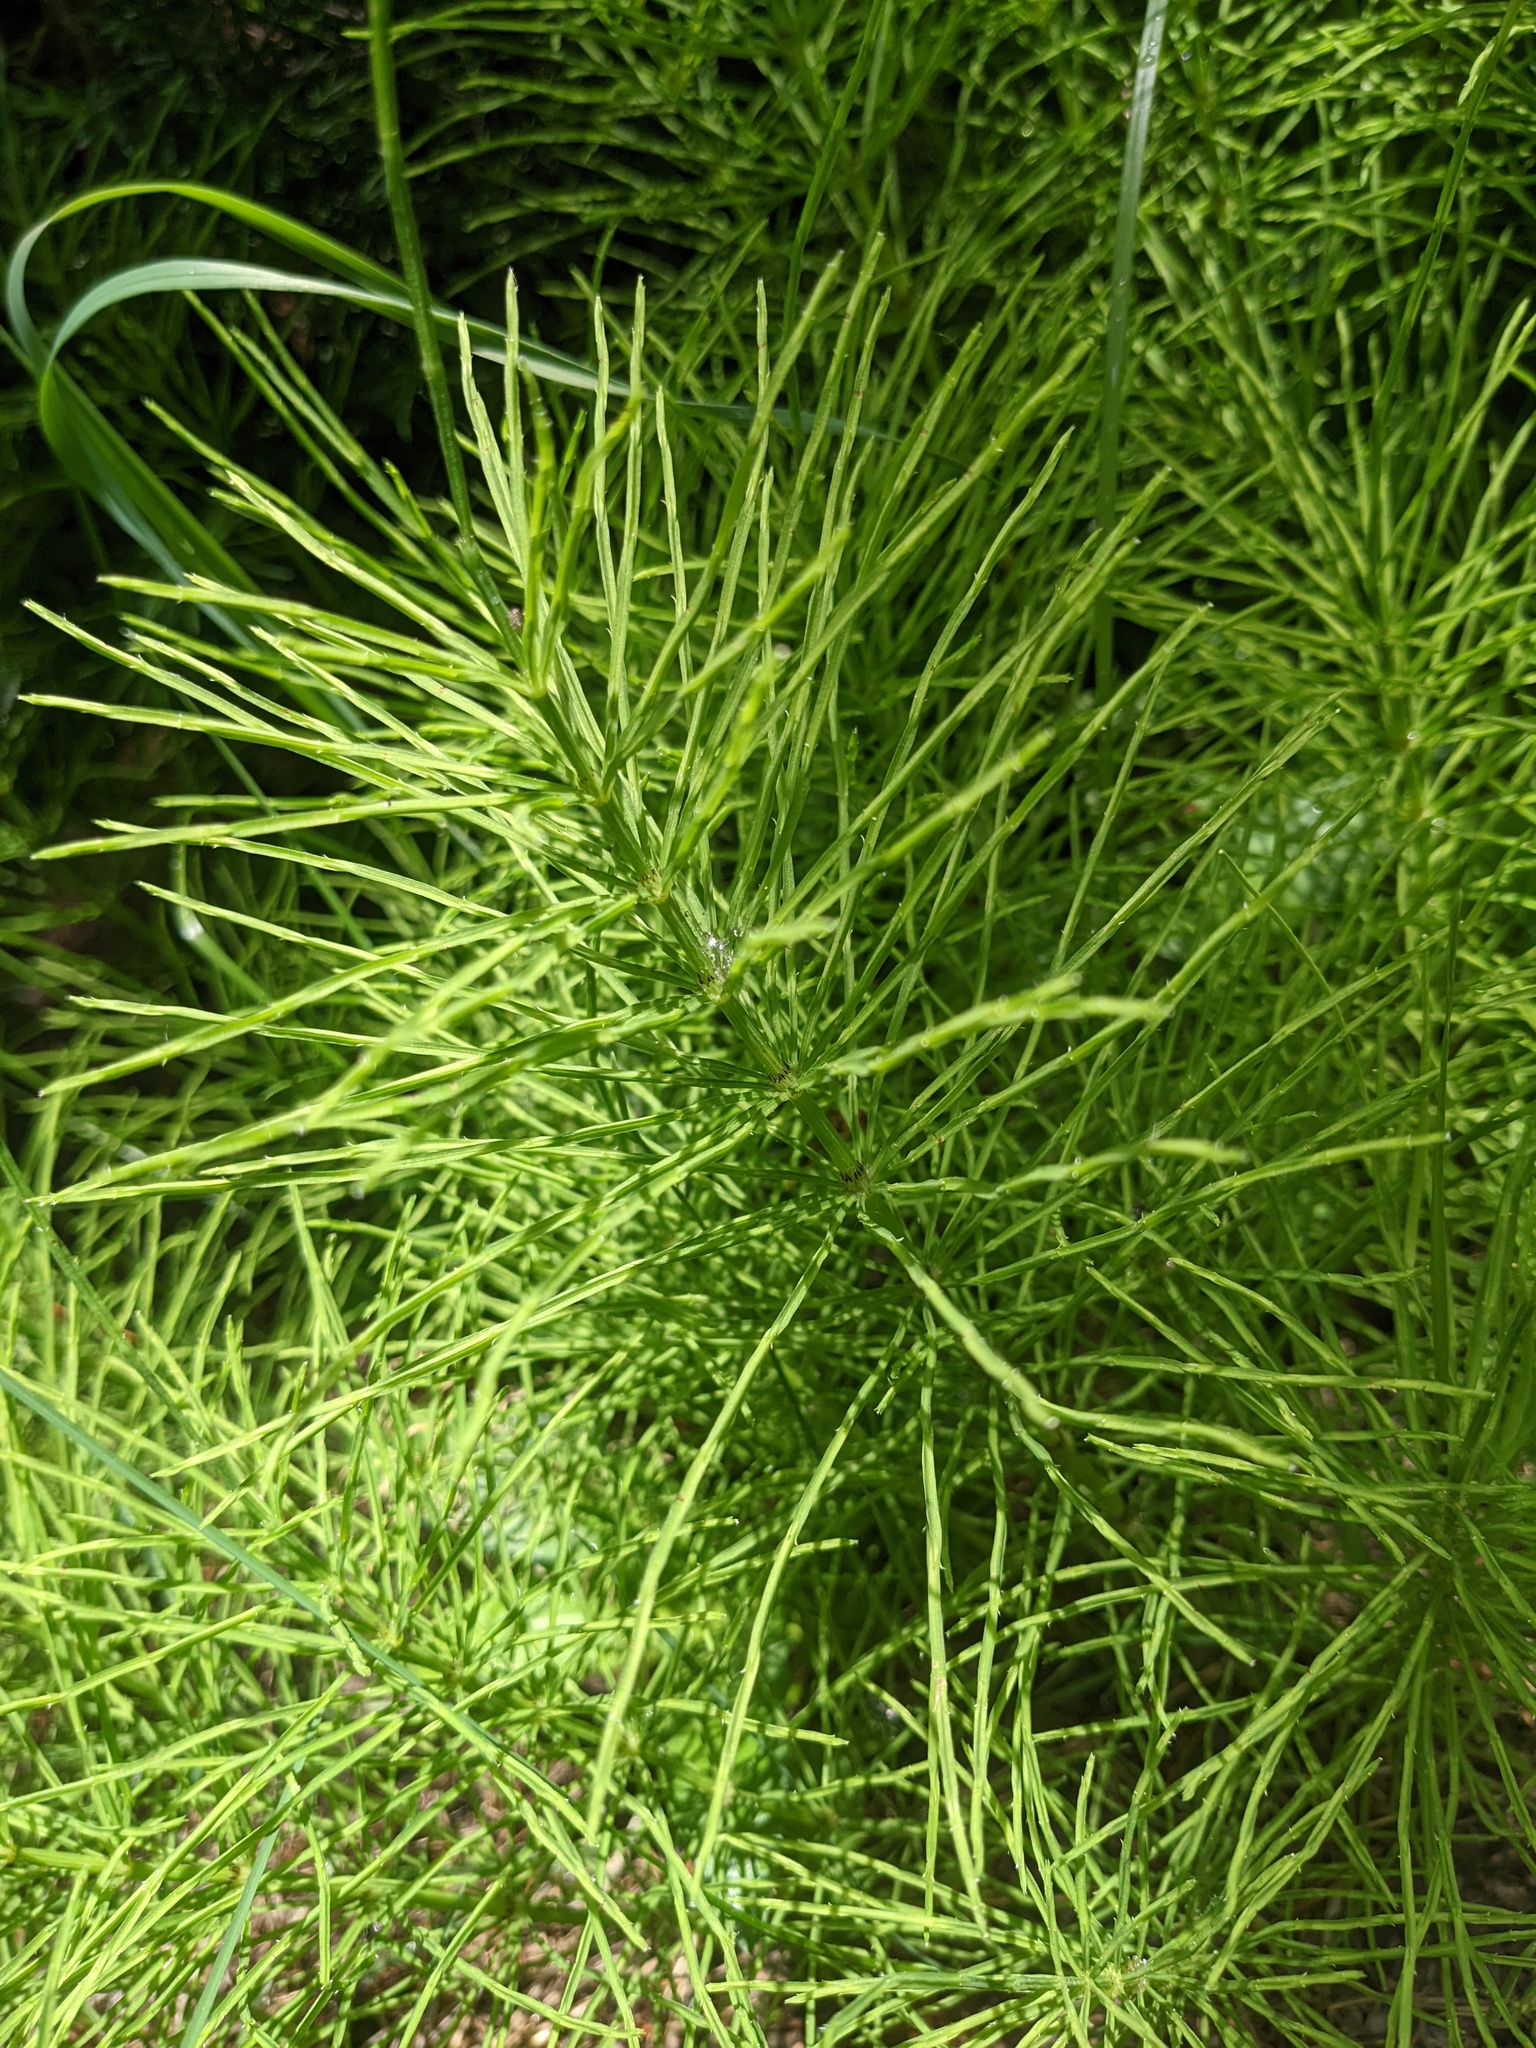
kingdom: Plantae
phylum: Tracheophyta
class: Polypodiopsida
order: Equisetales
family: Equisetaceae
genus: Equisetum
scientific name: Equisetum arvense
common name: Field horsetail
